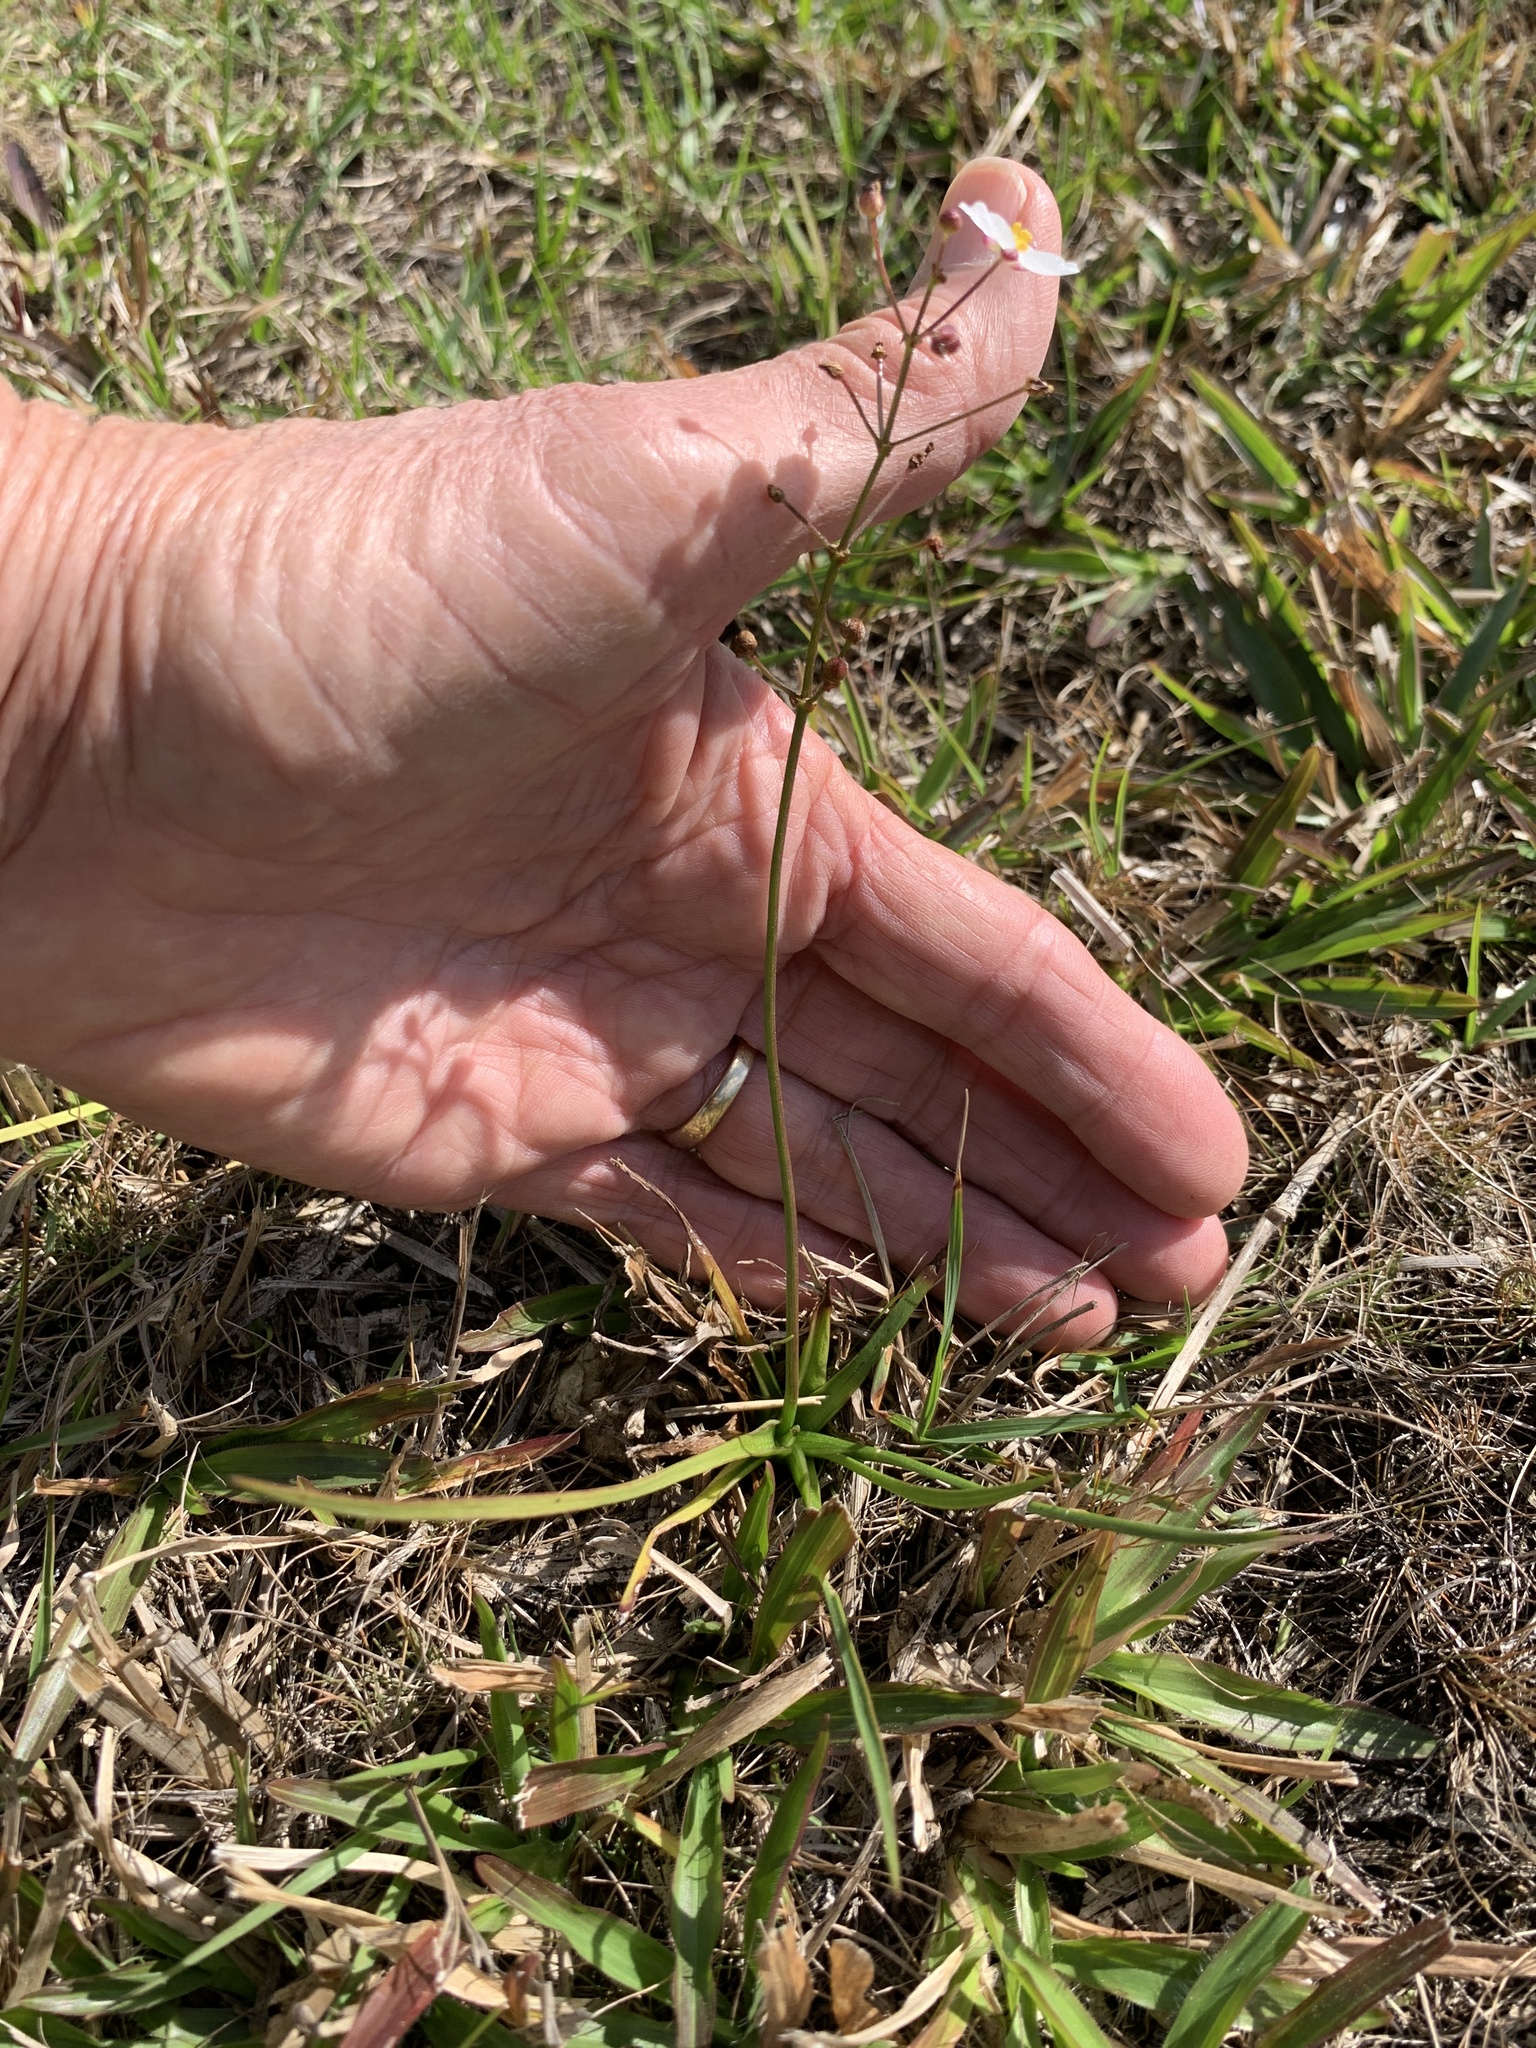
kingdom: Plantae
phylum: Tracheophyta
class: Liliopsida
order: Alismatales
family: Alismataceae
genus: Sagittaria
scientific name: Sagittaria graminea
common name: Grass-leaved arrowhead
